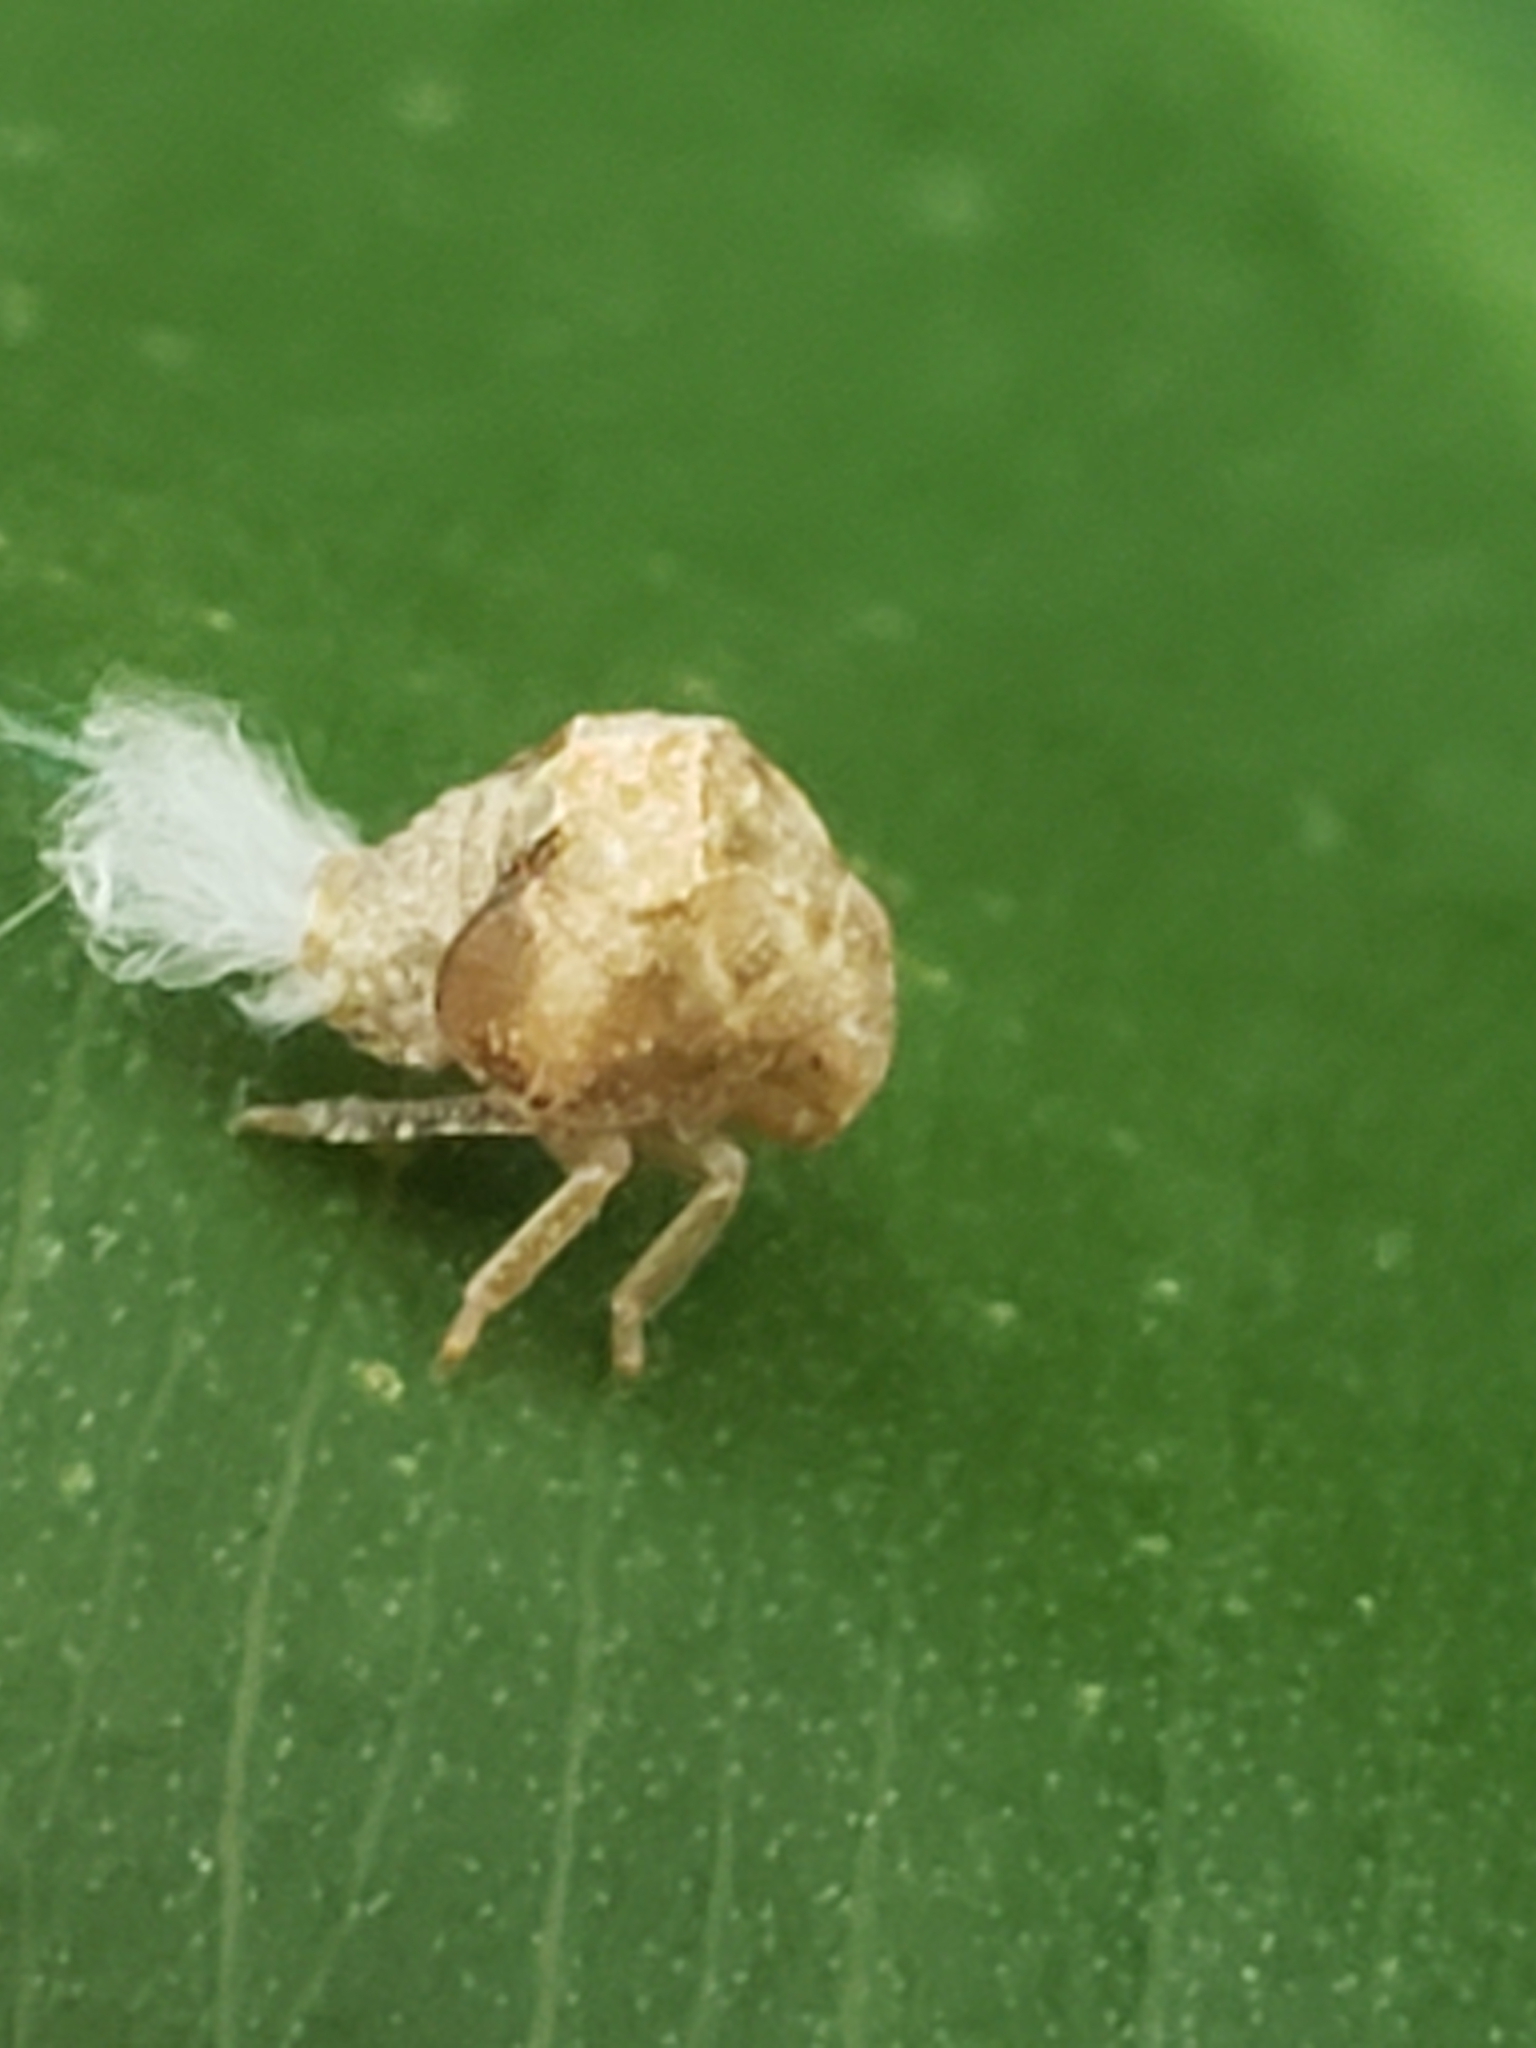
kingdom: Animalia
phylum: Arthropoda
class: Insecta
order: Hemiptera
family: Acanaloniidae
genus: Acanalonia
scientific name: Acanalonia bivittata
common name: Two-striped planthopper
